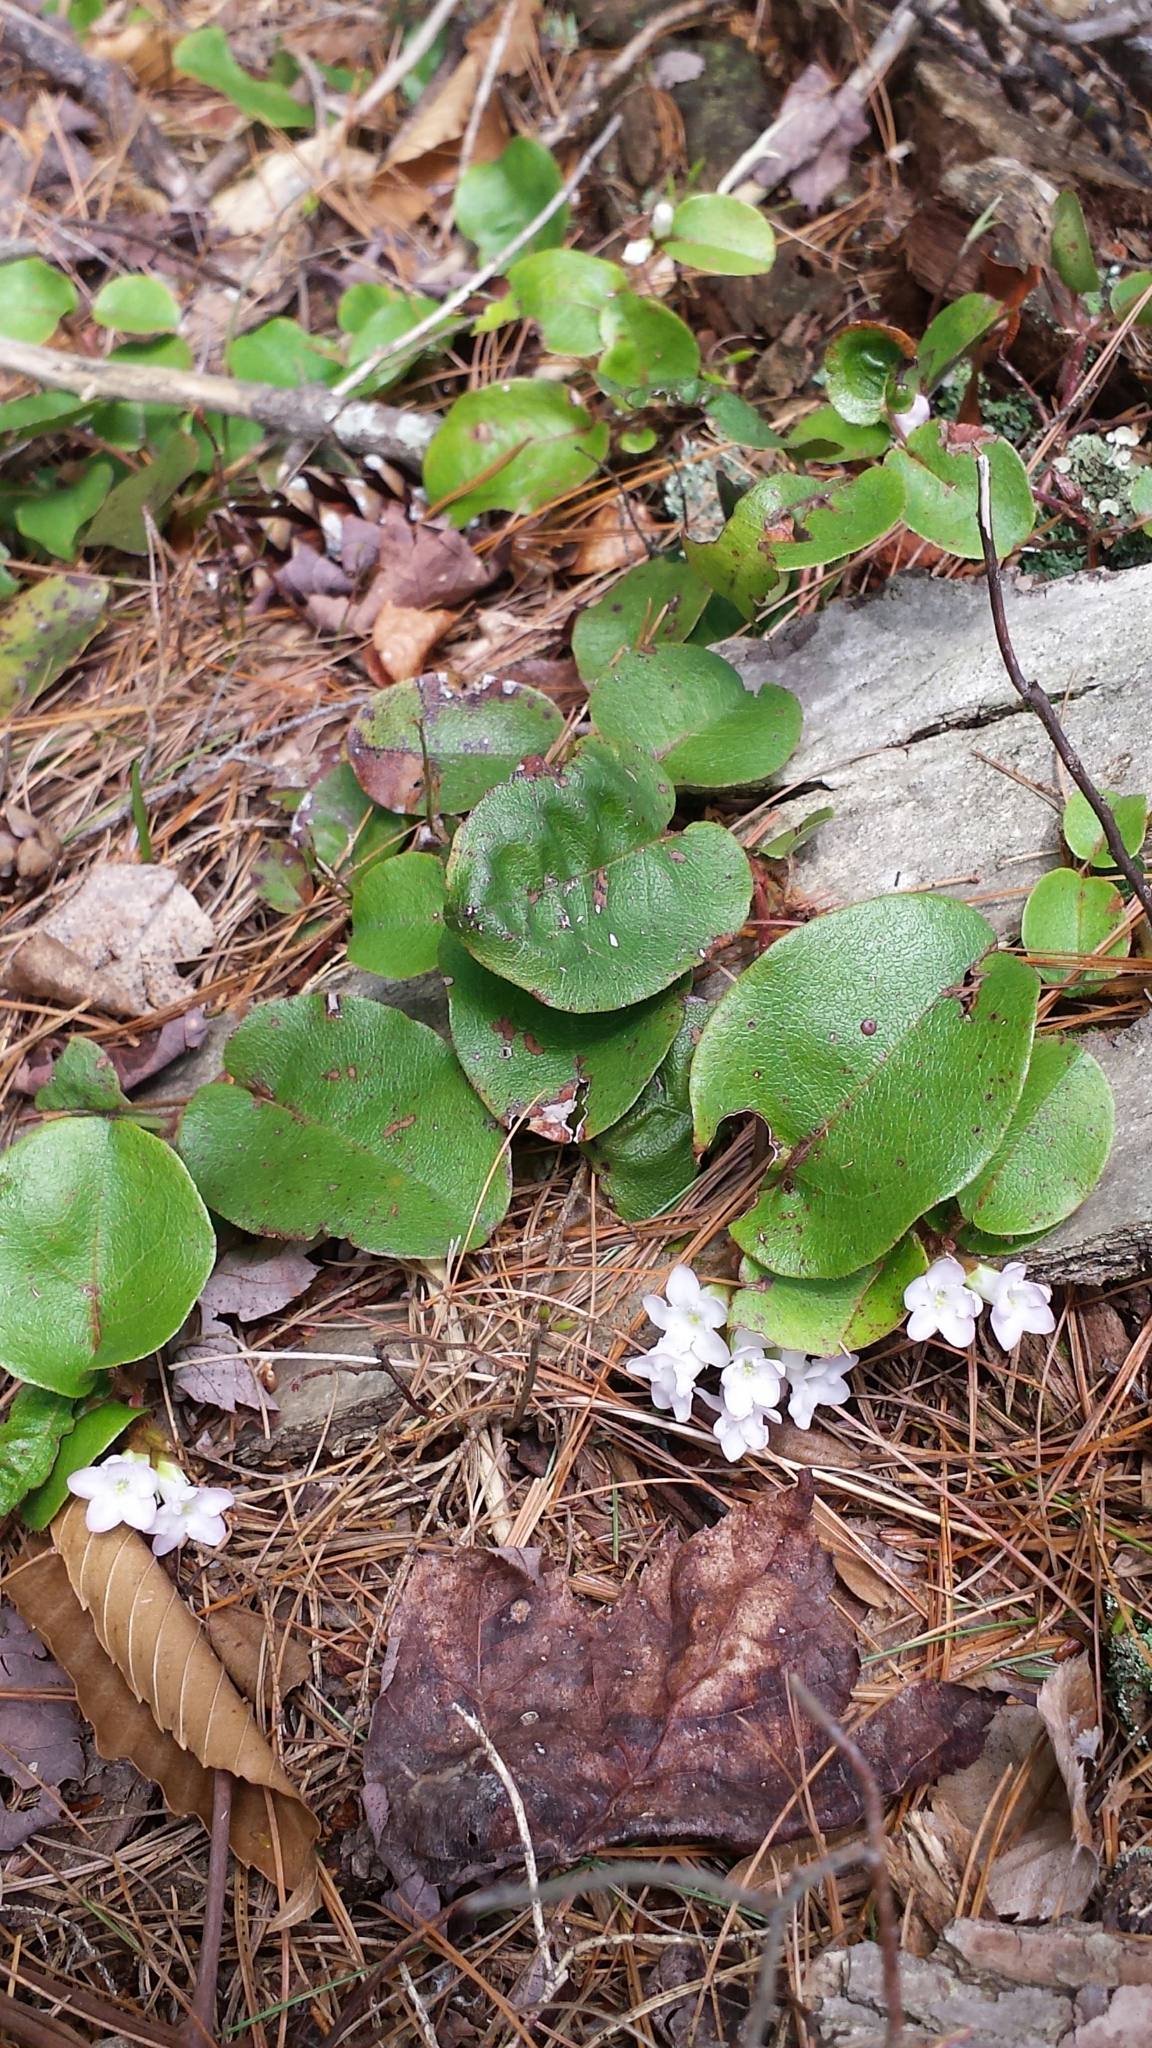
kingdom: Plantae
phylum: Tracheophyta
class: Magnoliopsida
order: Ericales
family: Ericaceae
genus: Epigaea
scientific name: Epigaea repens
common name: Gravelroot
